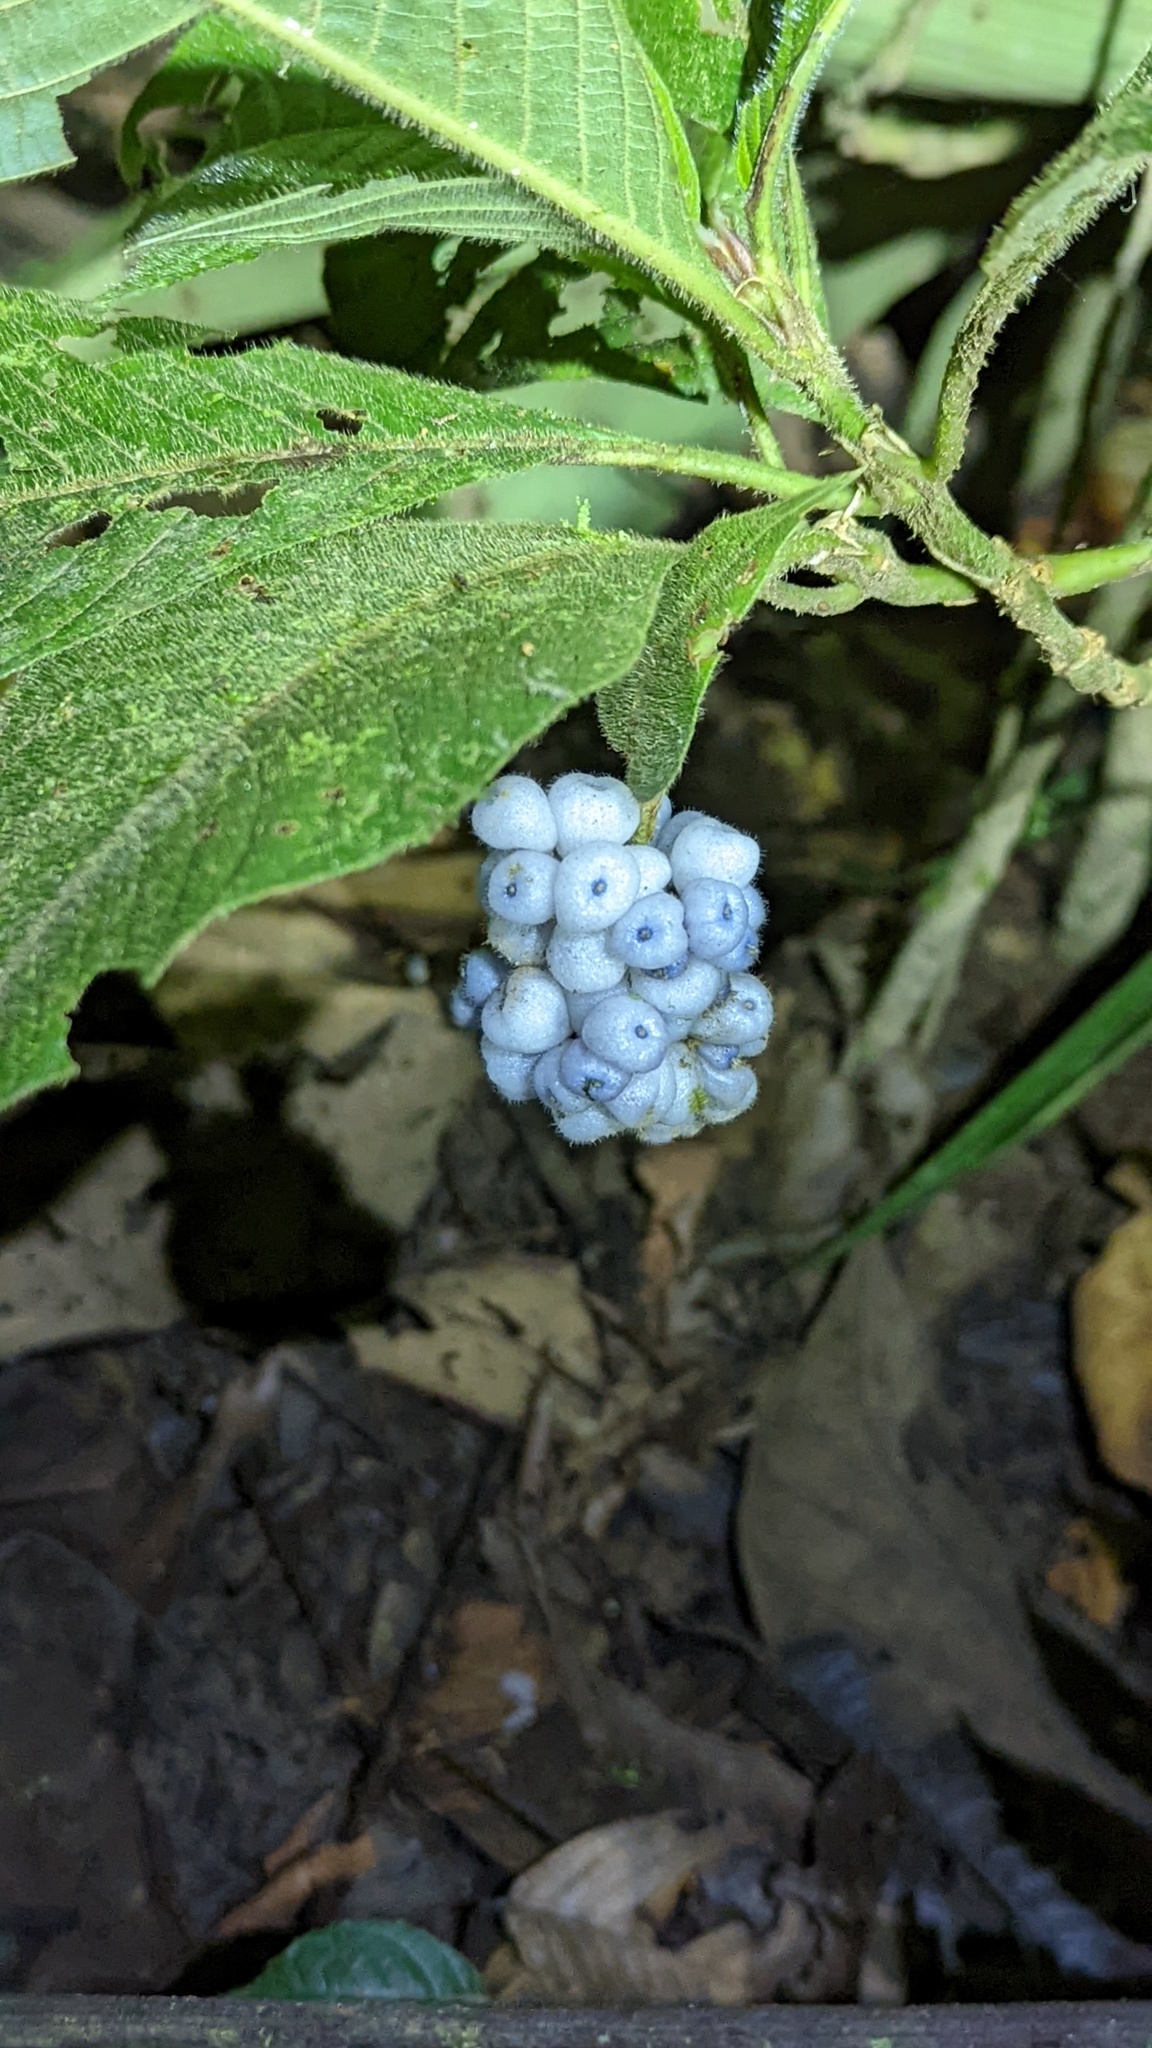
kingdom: Plantae
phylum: Tracheophyta
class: Magnoliopsida
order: Gentianales
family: Rubiaceae
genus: Palicourea
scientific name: Palicourea pilosa
